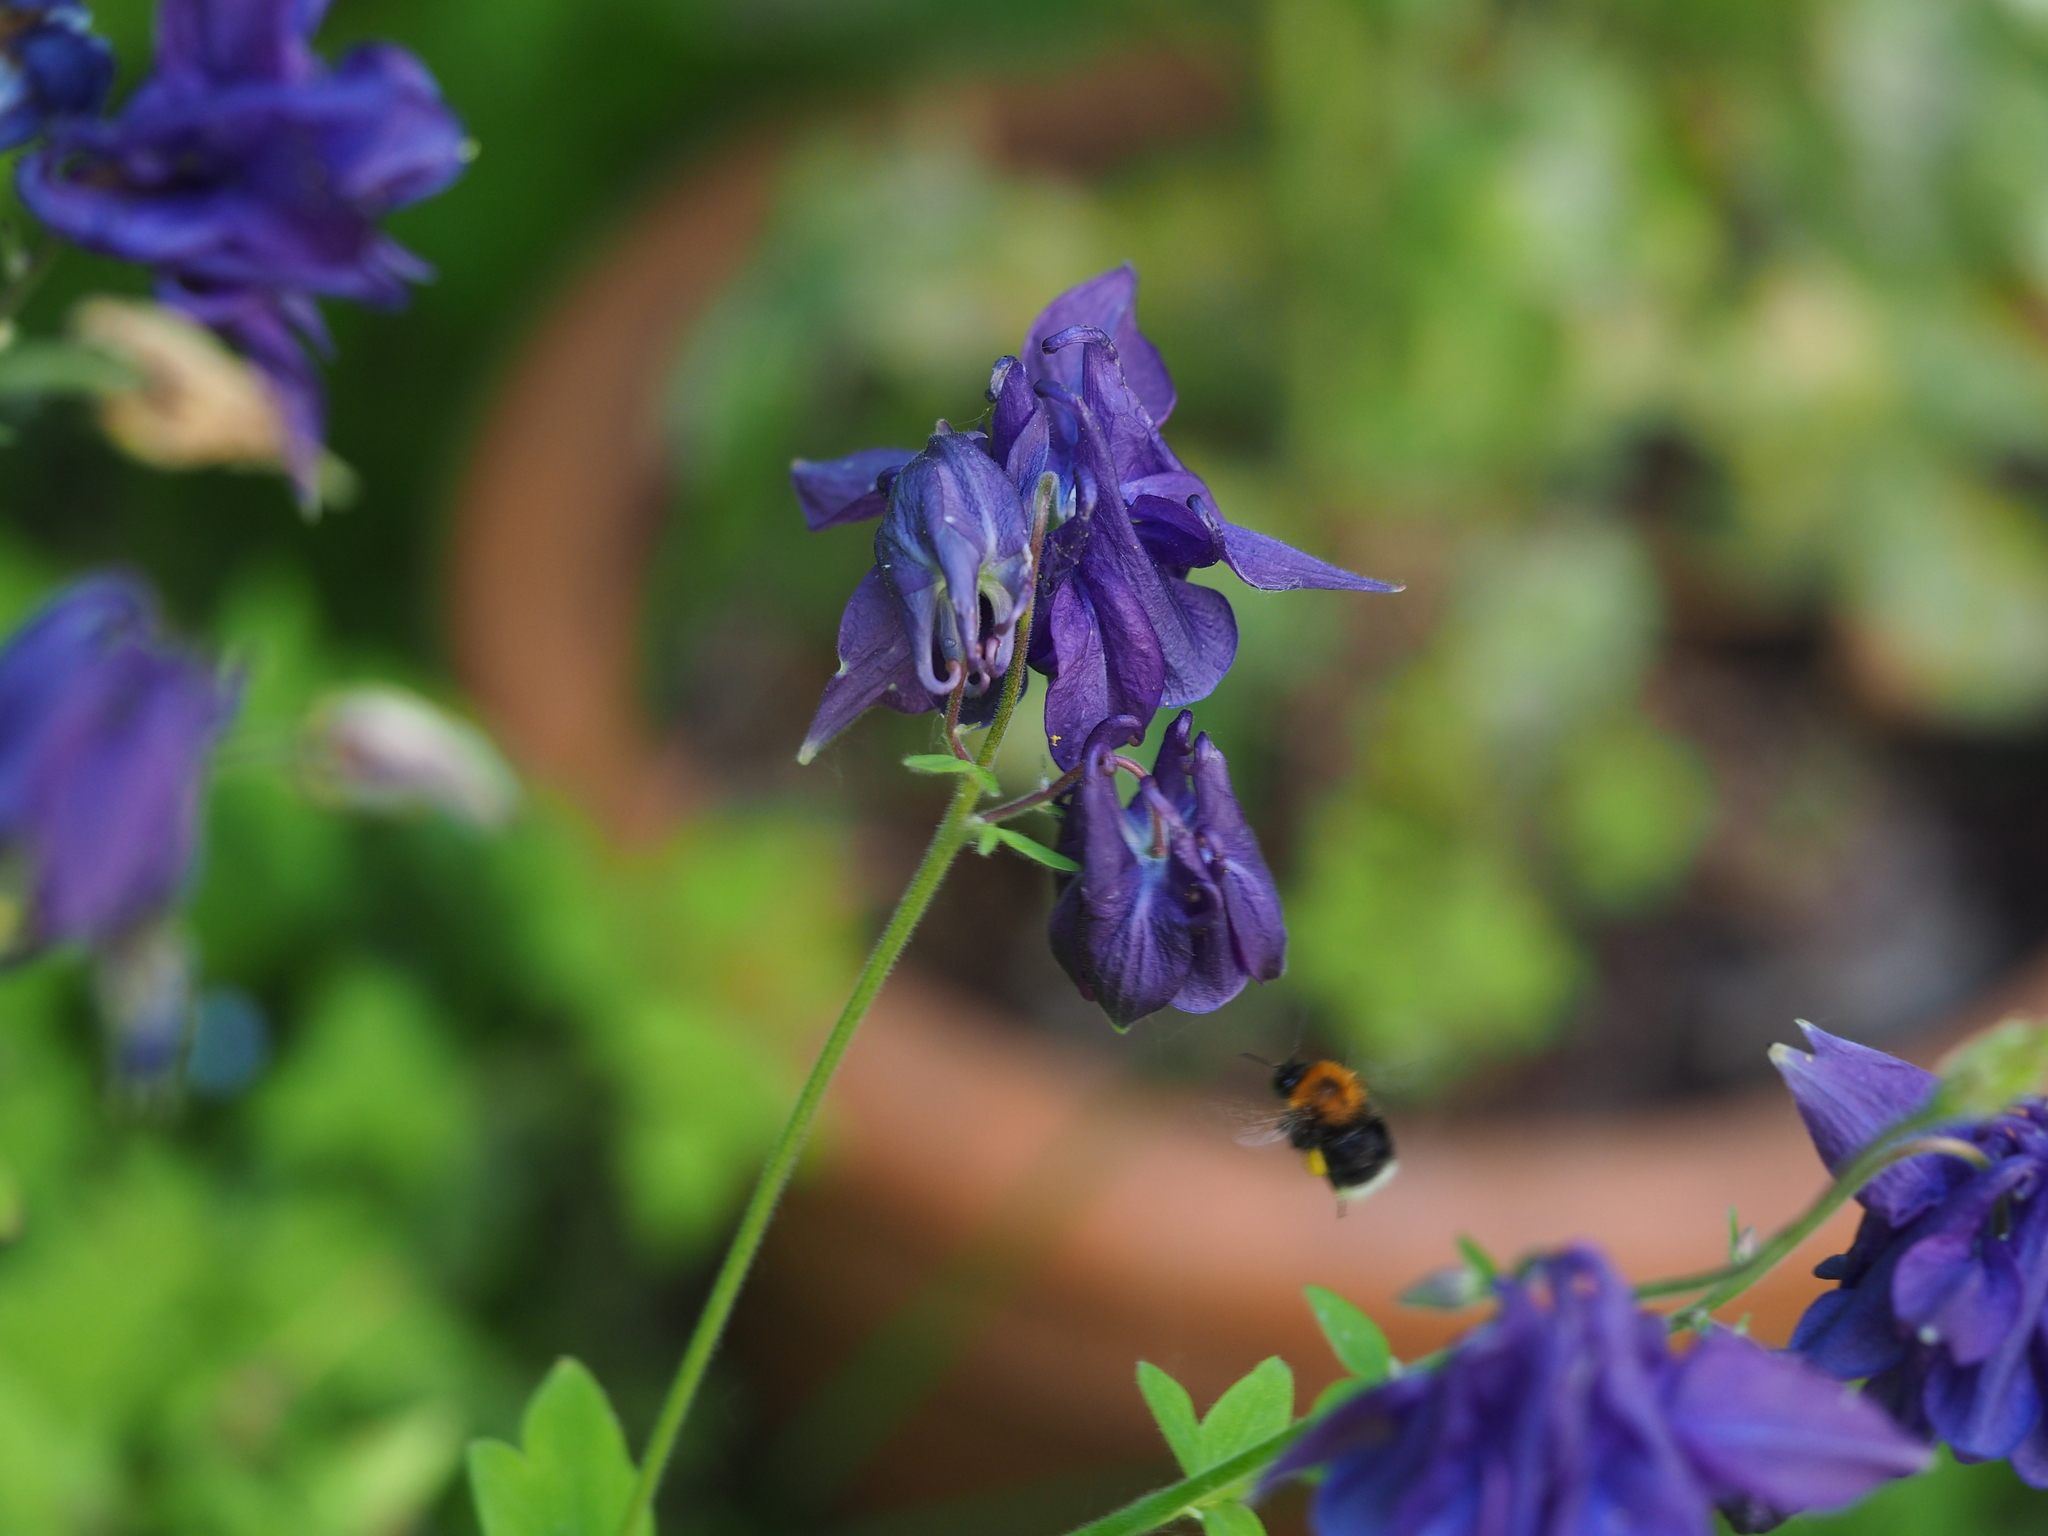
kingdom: Animalia
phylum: Arthropoda
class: Insecta
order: Hymenoptera
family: Apidae
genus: Bombus
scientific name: Bombus hypnorum
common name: New garden bumblebee
